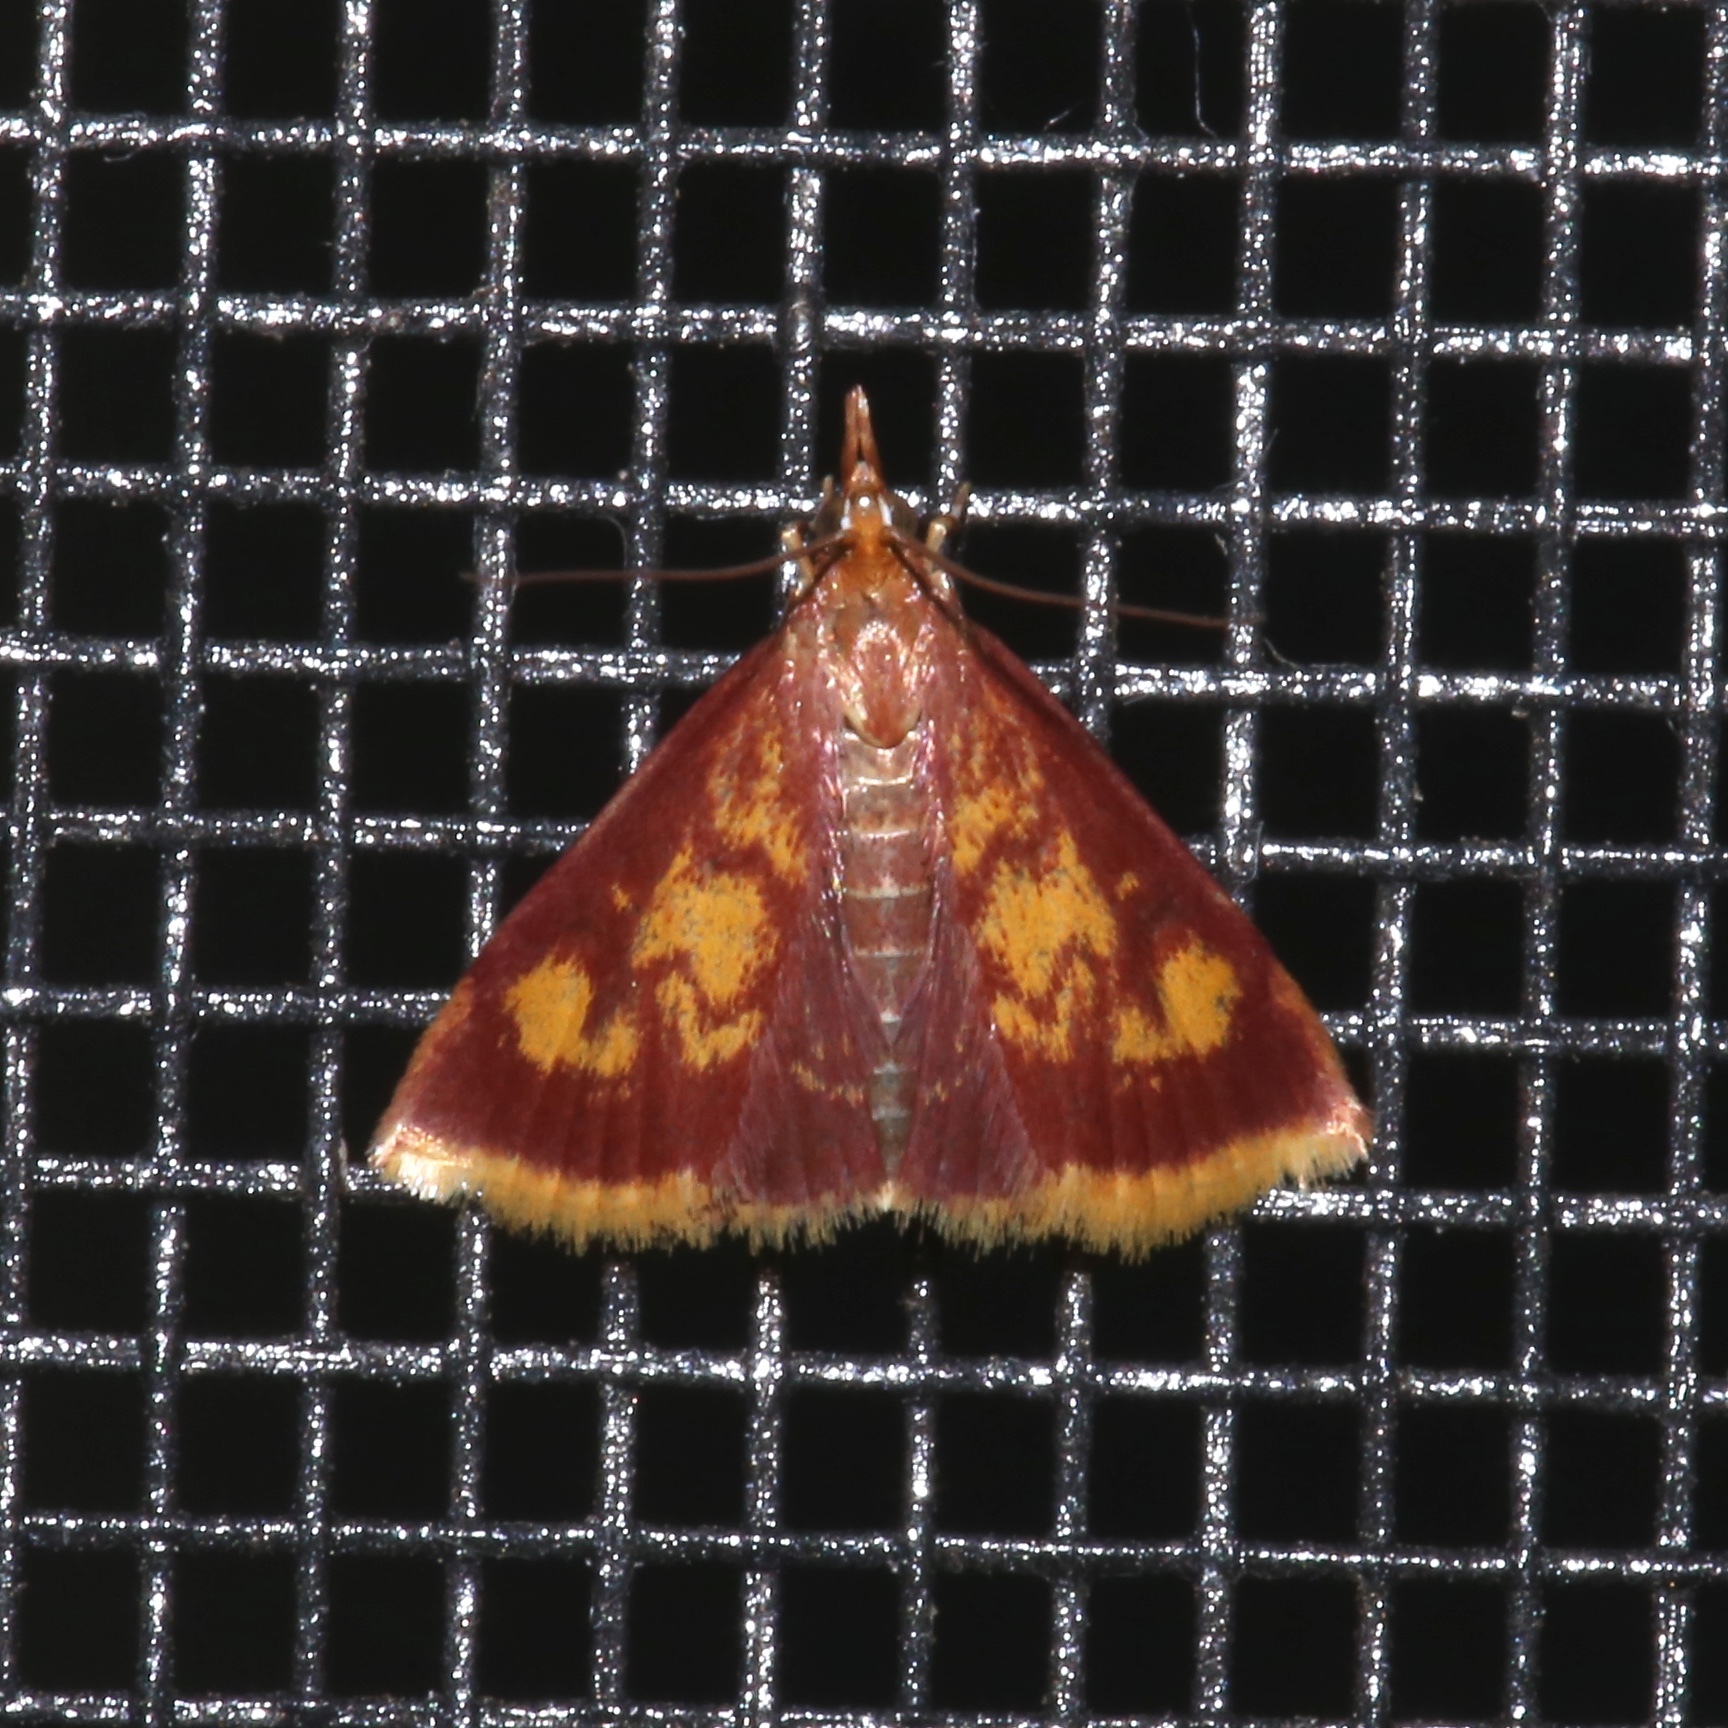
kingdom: Animalia
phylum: Arthropoda
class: Insecta
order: Lepidoptera
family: Crambidae
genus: Pyrausta
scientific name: Pyrausta acrionalis
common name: Mint-loving pyrausta moth
